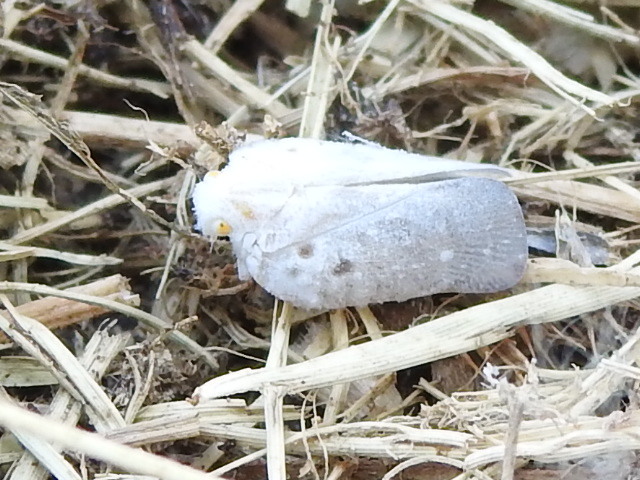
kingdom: Animalia
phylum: Arthropoda
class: Insecta
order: Hemiptera
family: Flatidae
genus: Metcalfa
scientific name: Metcalfa pruinosa
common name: Citrus flatid planthopper
